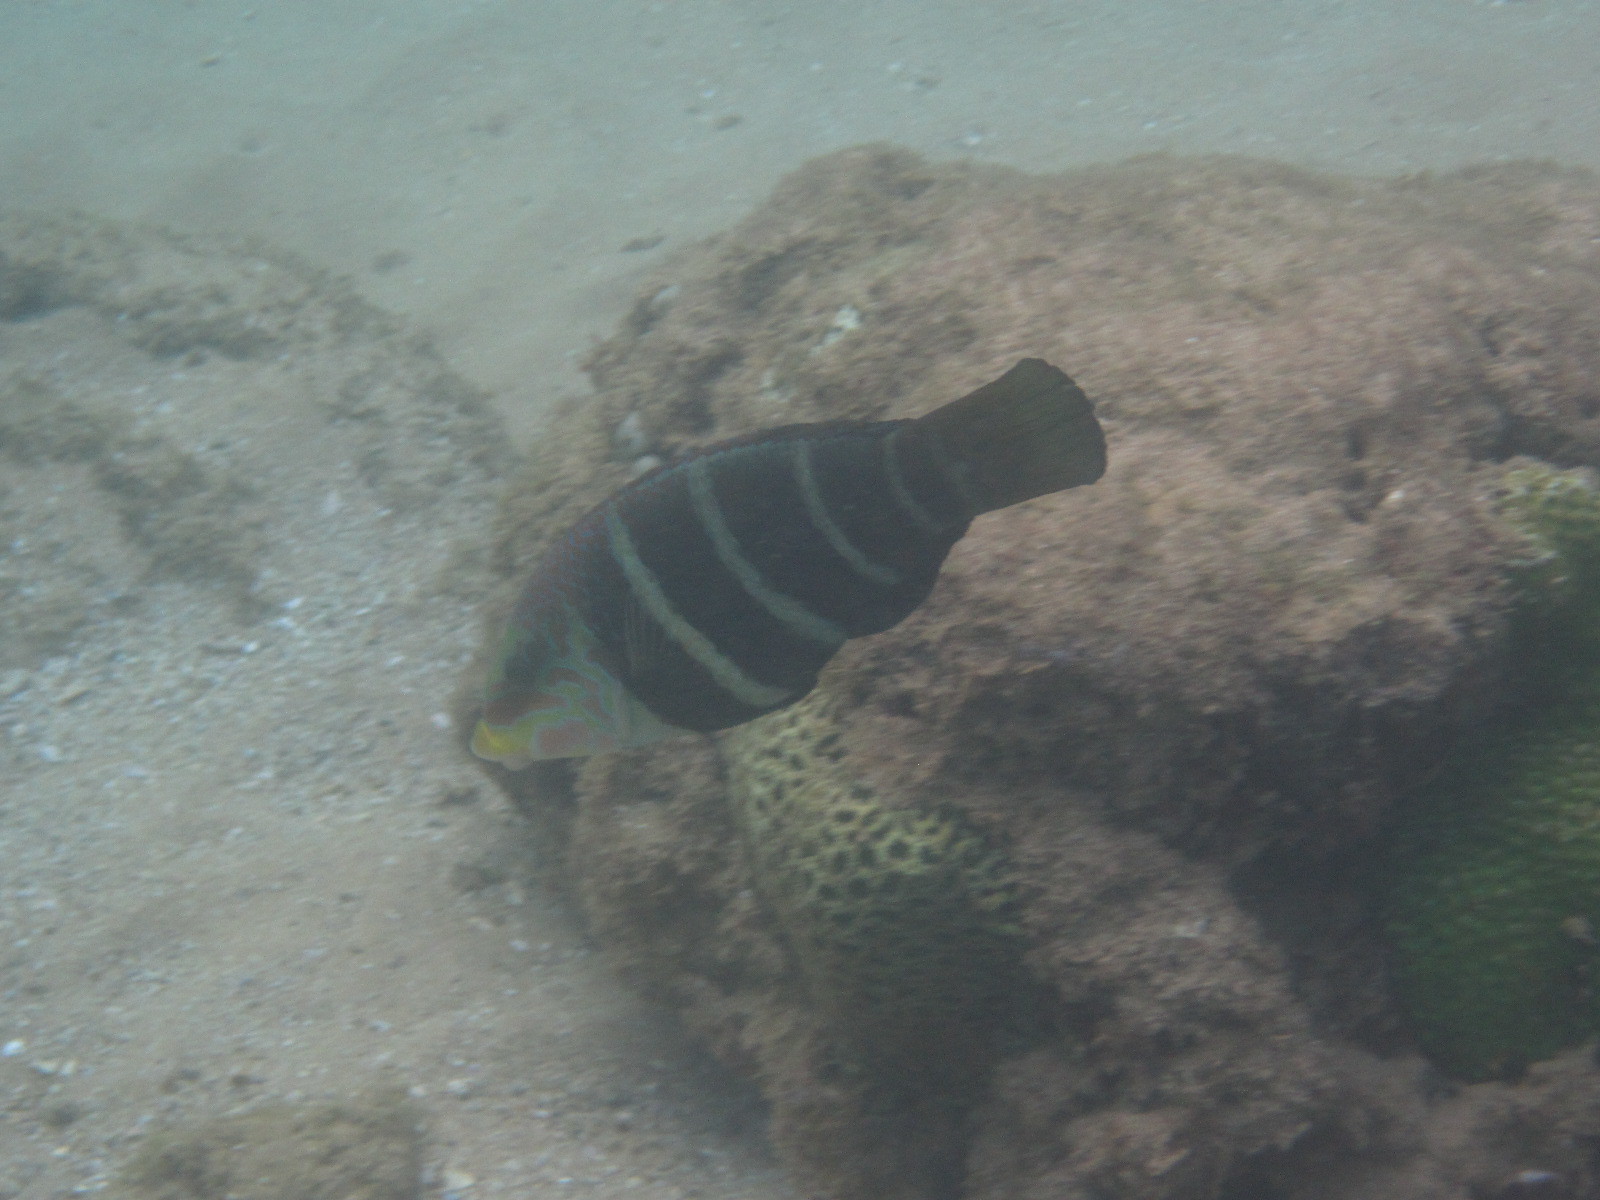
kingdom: Animalia
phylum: Chordata
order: Perciformes
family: Labridae
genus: Hemigymnus
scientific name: Hemigymnus fasciatus
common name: Barred thicklip
